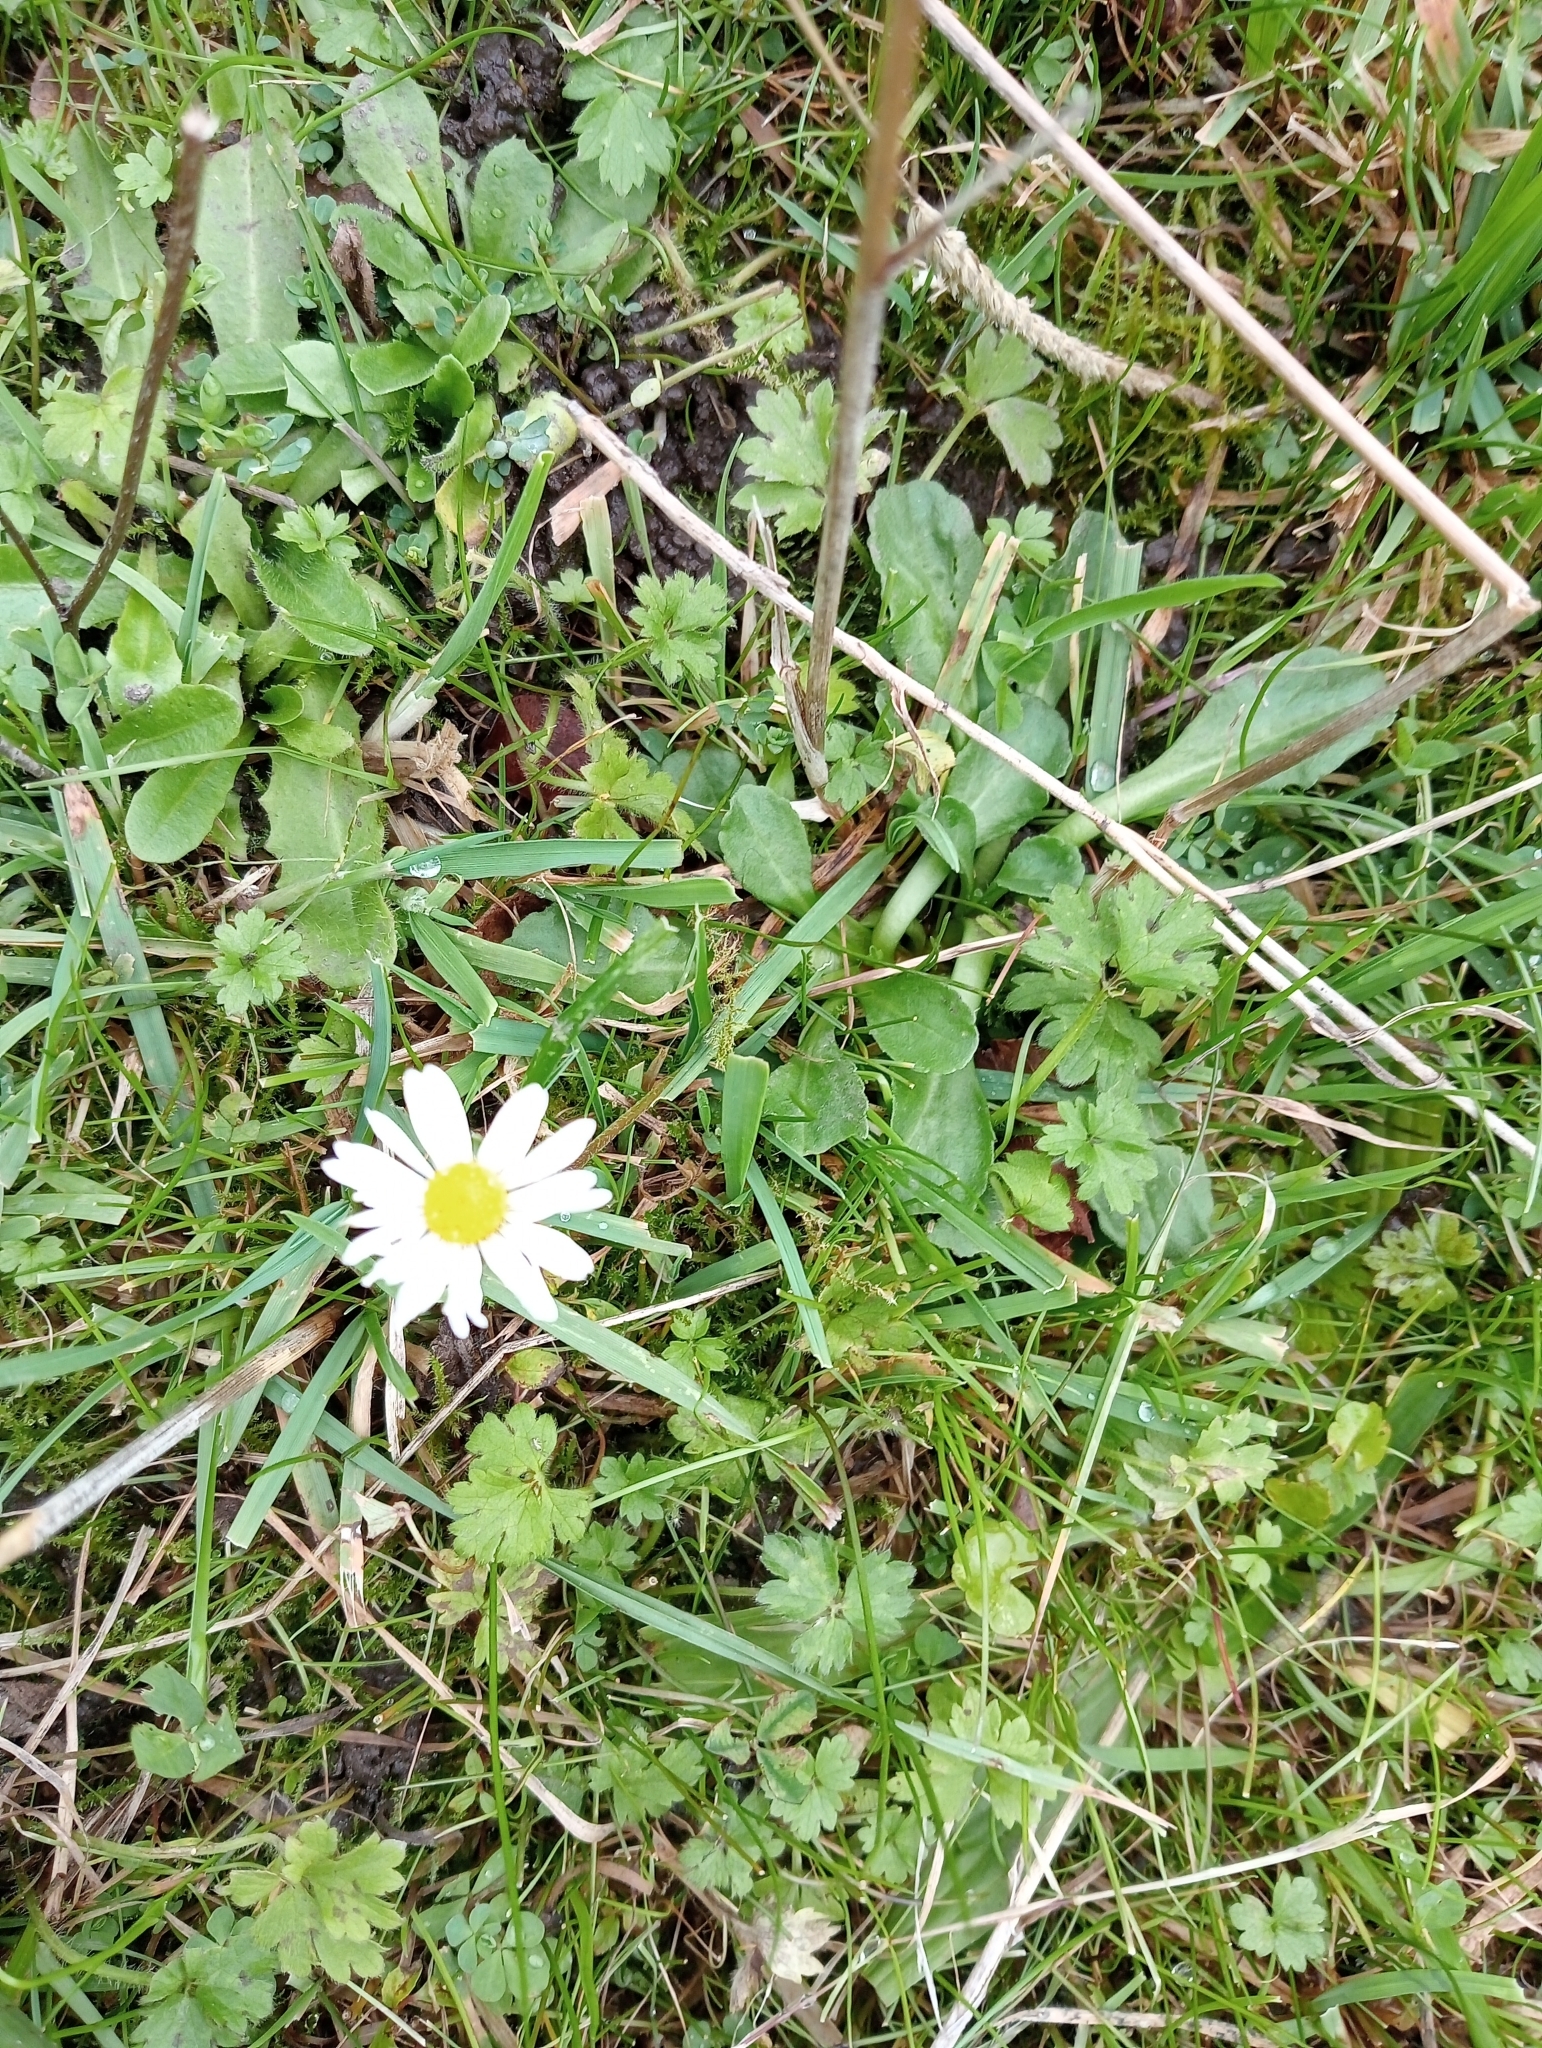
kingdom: Plantae
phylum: Tracheophyta
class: Magnoliopsida
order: Asterales
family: Asteraceae
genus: Bellis
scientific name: Bellis perennis
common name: Lawndaisy
